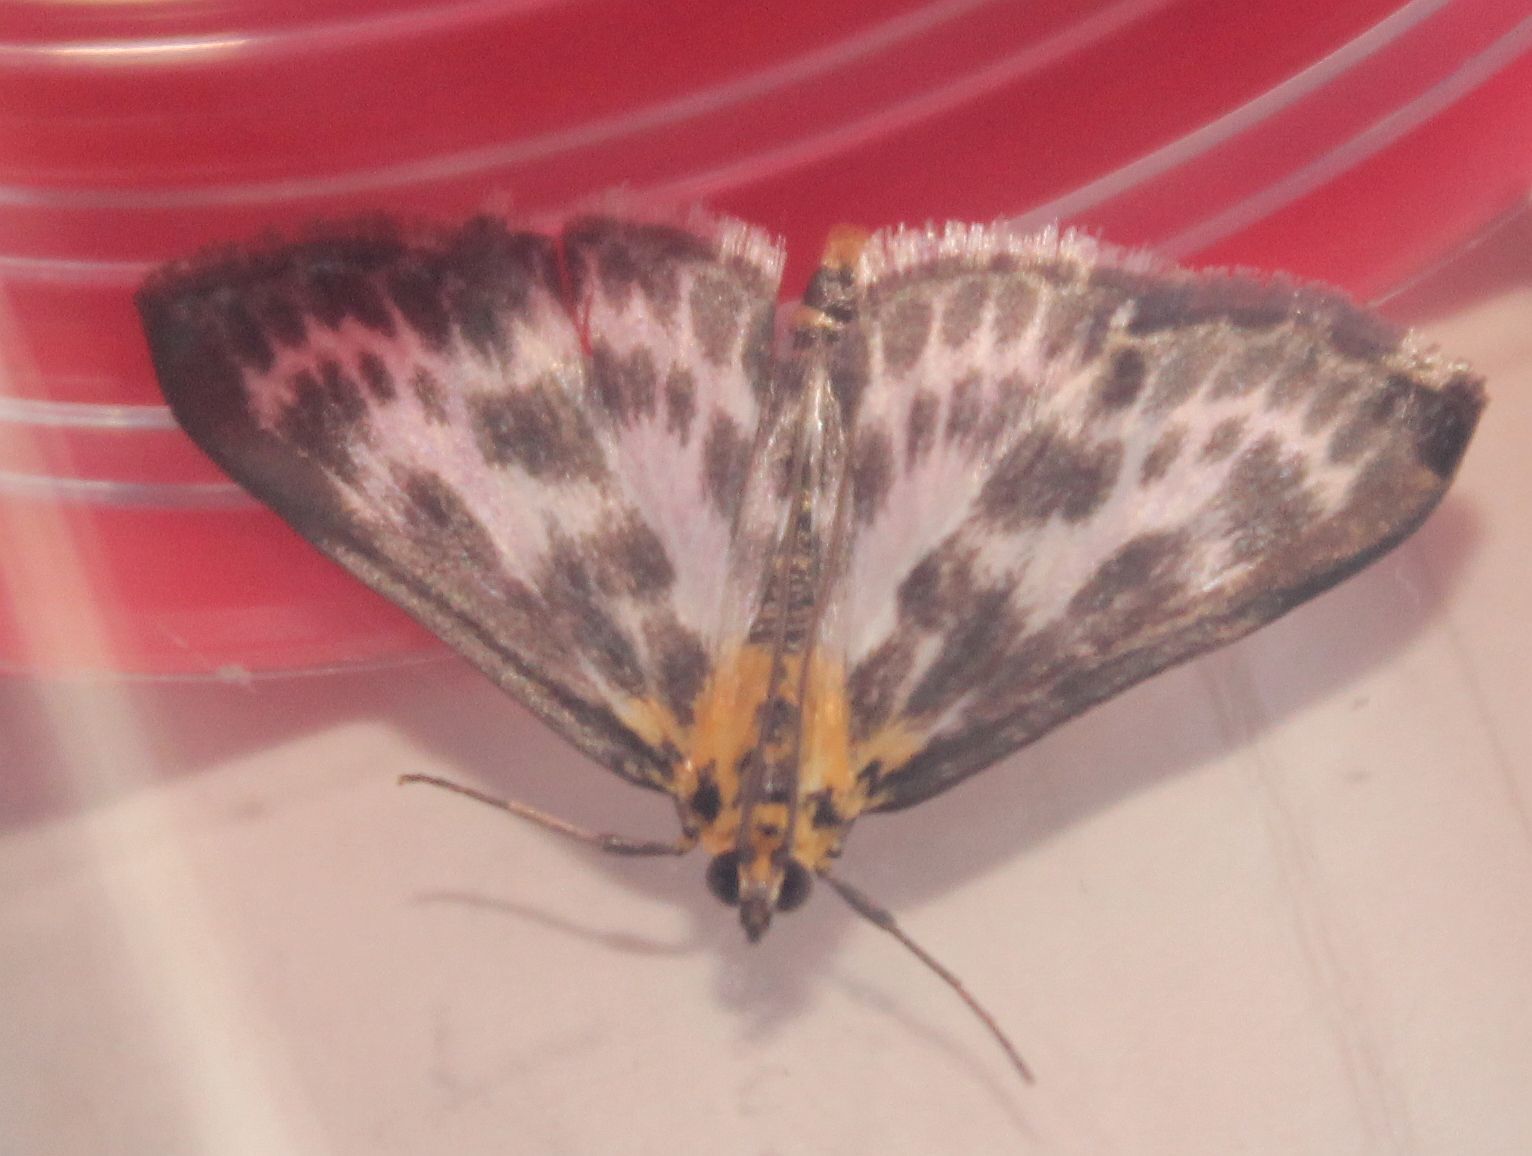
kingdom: Animalia
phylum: Arthropoda
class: Insecta
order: Lepidoptera
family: Crambidae
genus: Anania
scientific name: Anania hortulata
